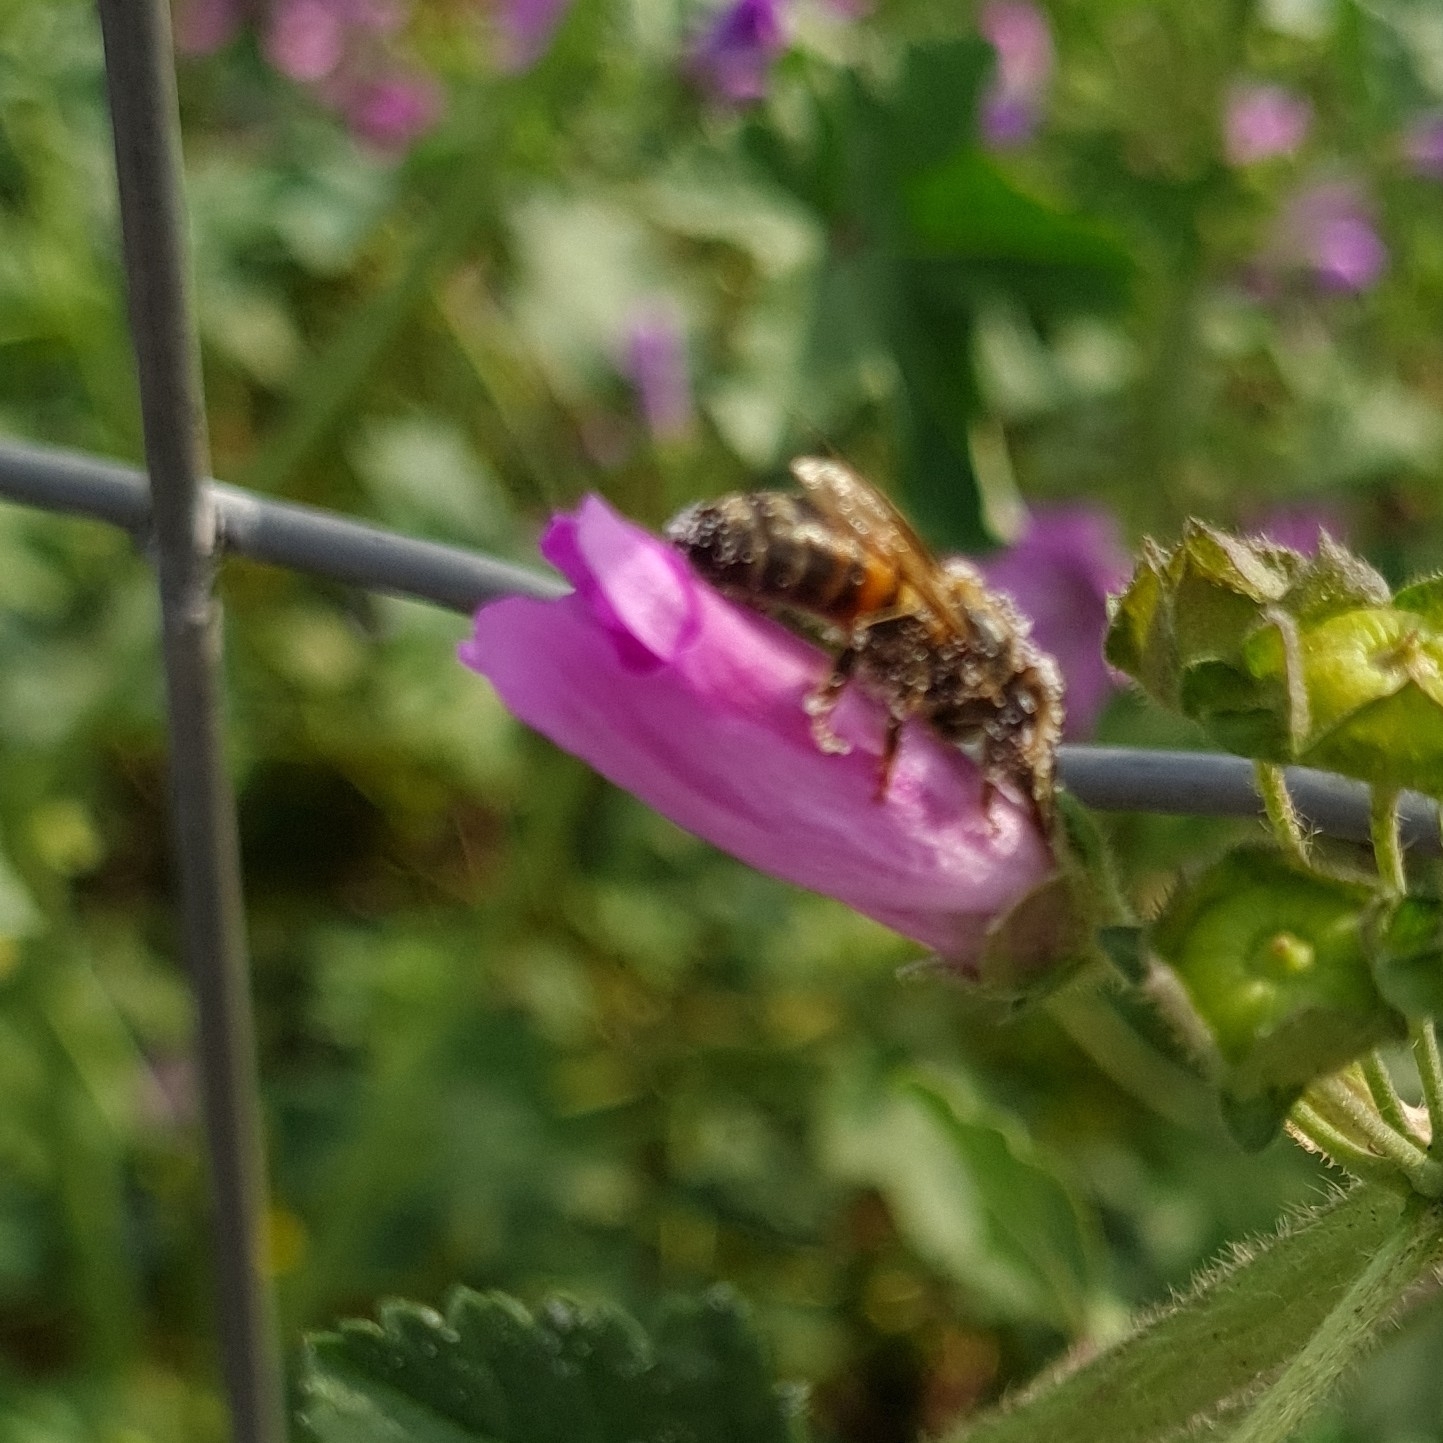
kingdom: Animalia
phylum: Arthropoda
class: Insecta
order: Hymenoptera
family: Apidae
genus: Apis
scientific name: Apis mellifera
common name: Honey bee
